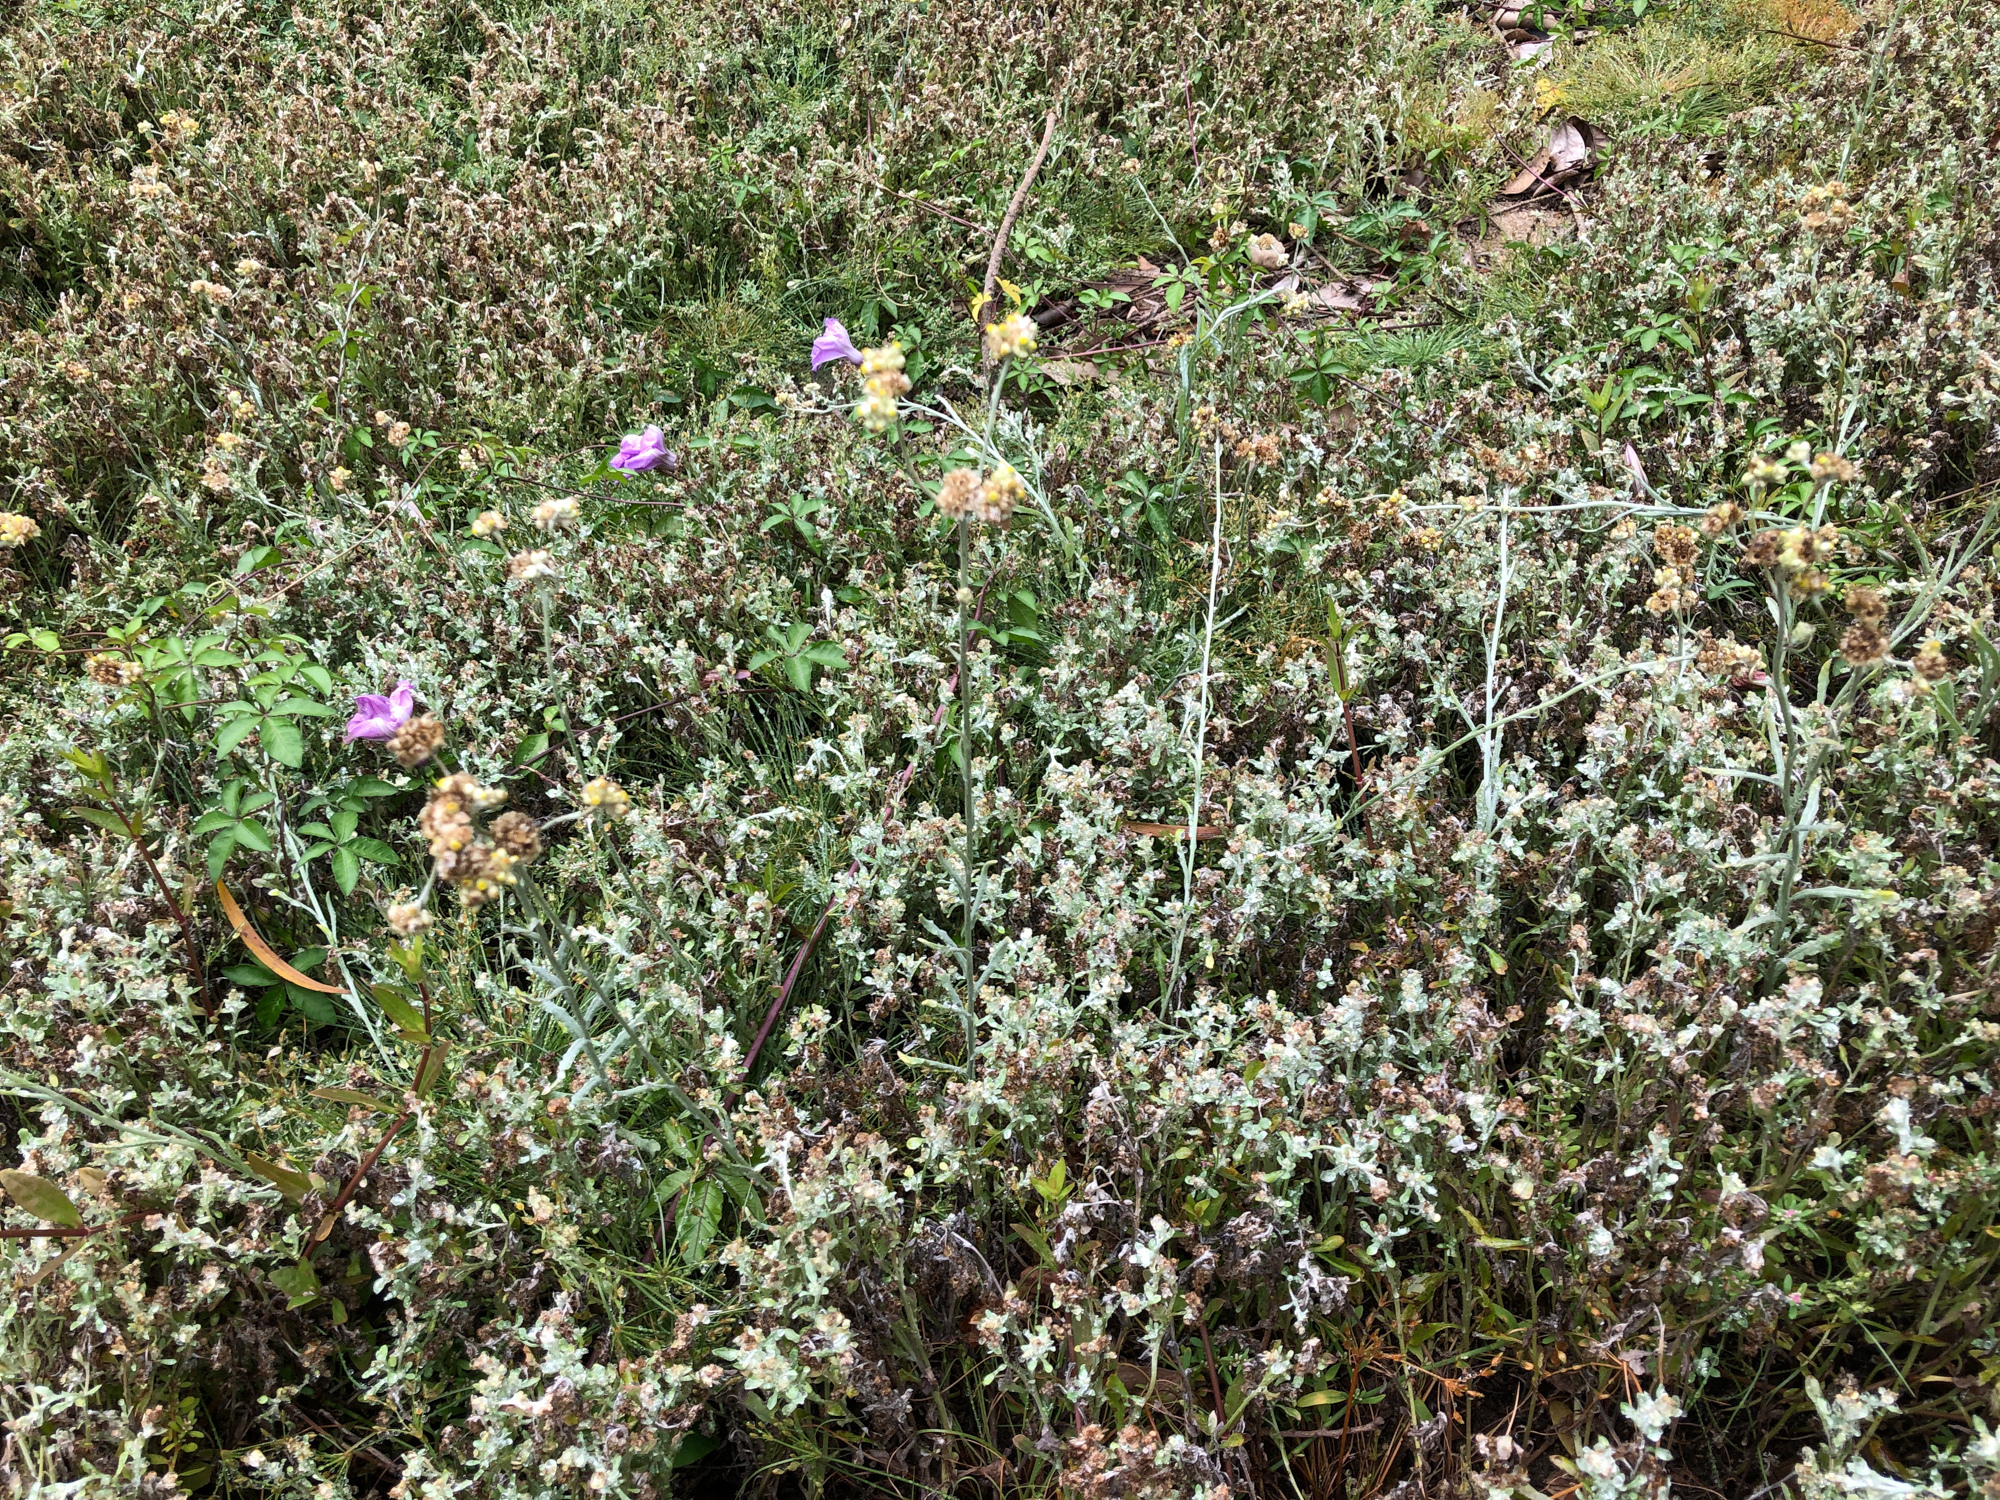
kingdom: Plantae
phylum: Tracheophyta
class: Magnoliopsida
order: Asterales
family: Asteraceae
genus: Pseudognaphalium
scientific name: Pseudognaphalium affine
